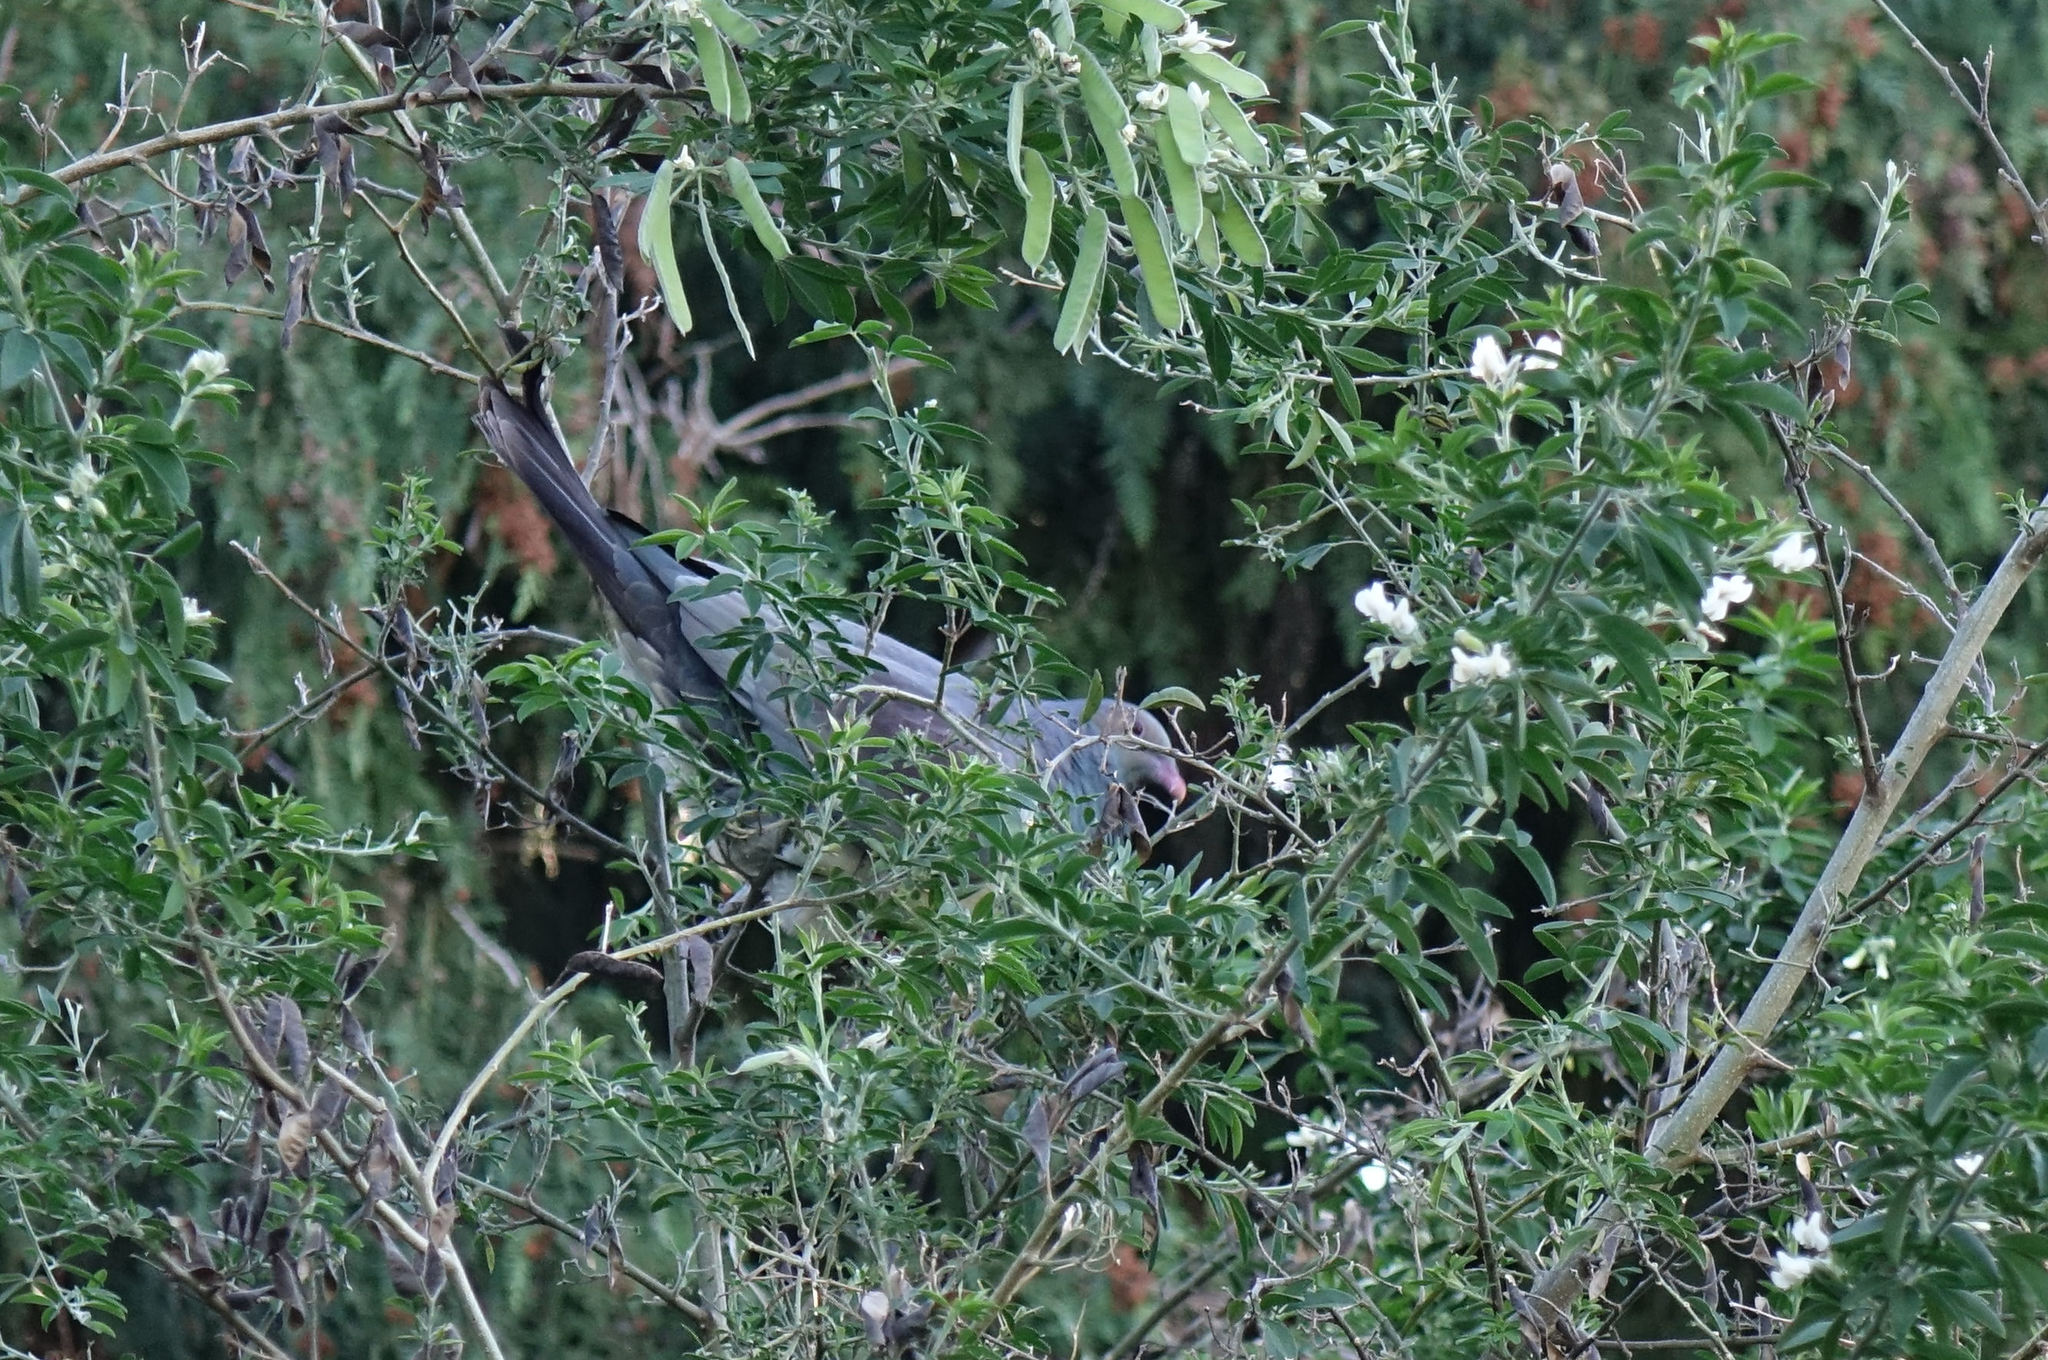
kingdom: Animalia
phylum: Chordata
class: Aves
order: Columbiformes
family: Columbidae
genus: Hemiphaga
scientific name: Hemiphaga novaeseelandiae
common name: New zealand pigeon
